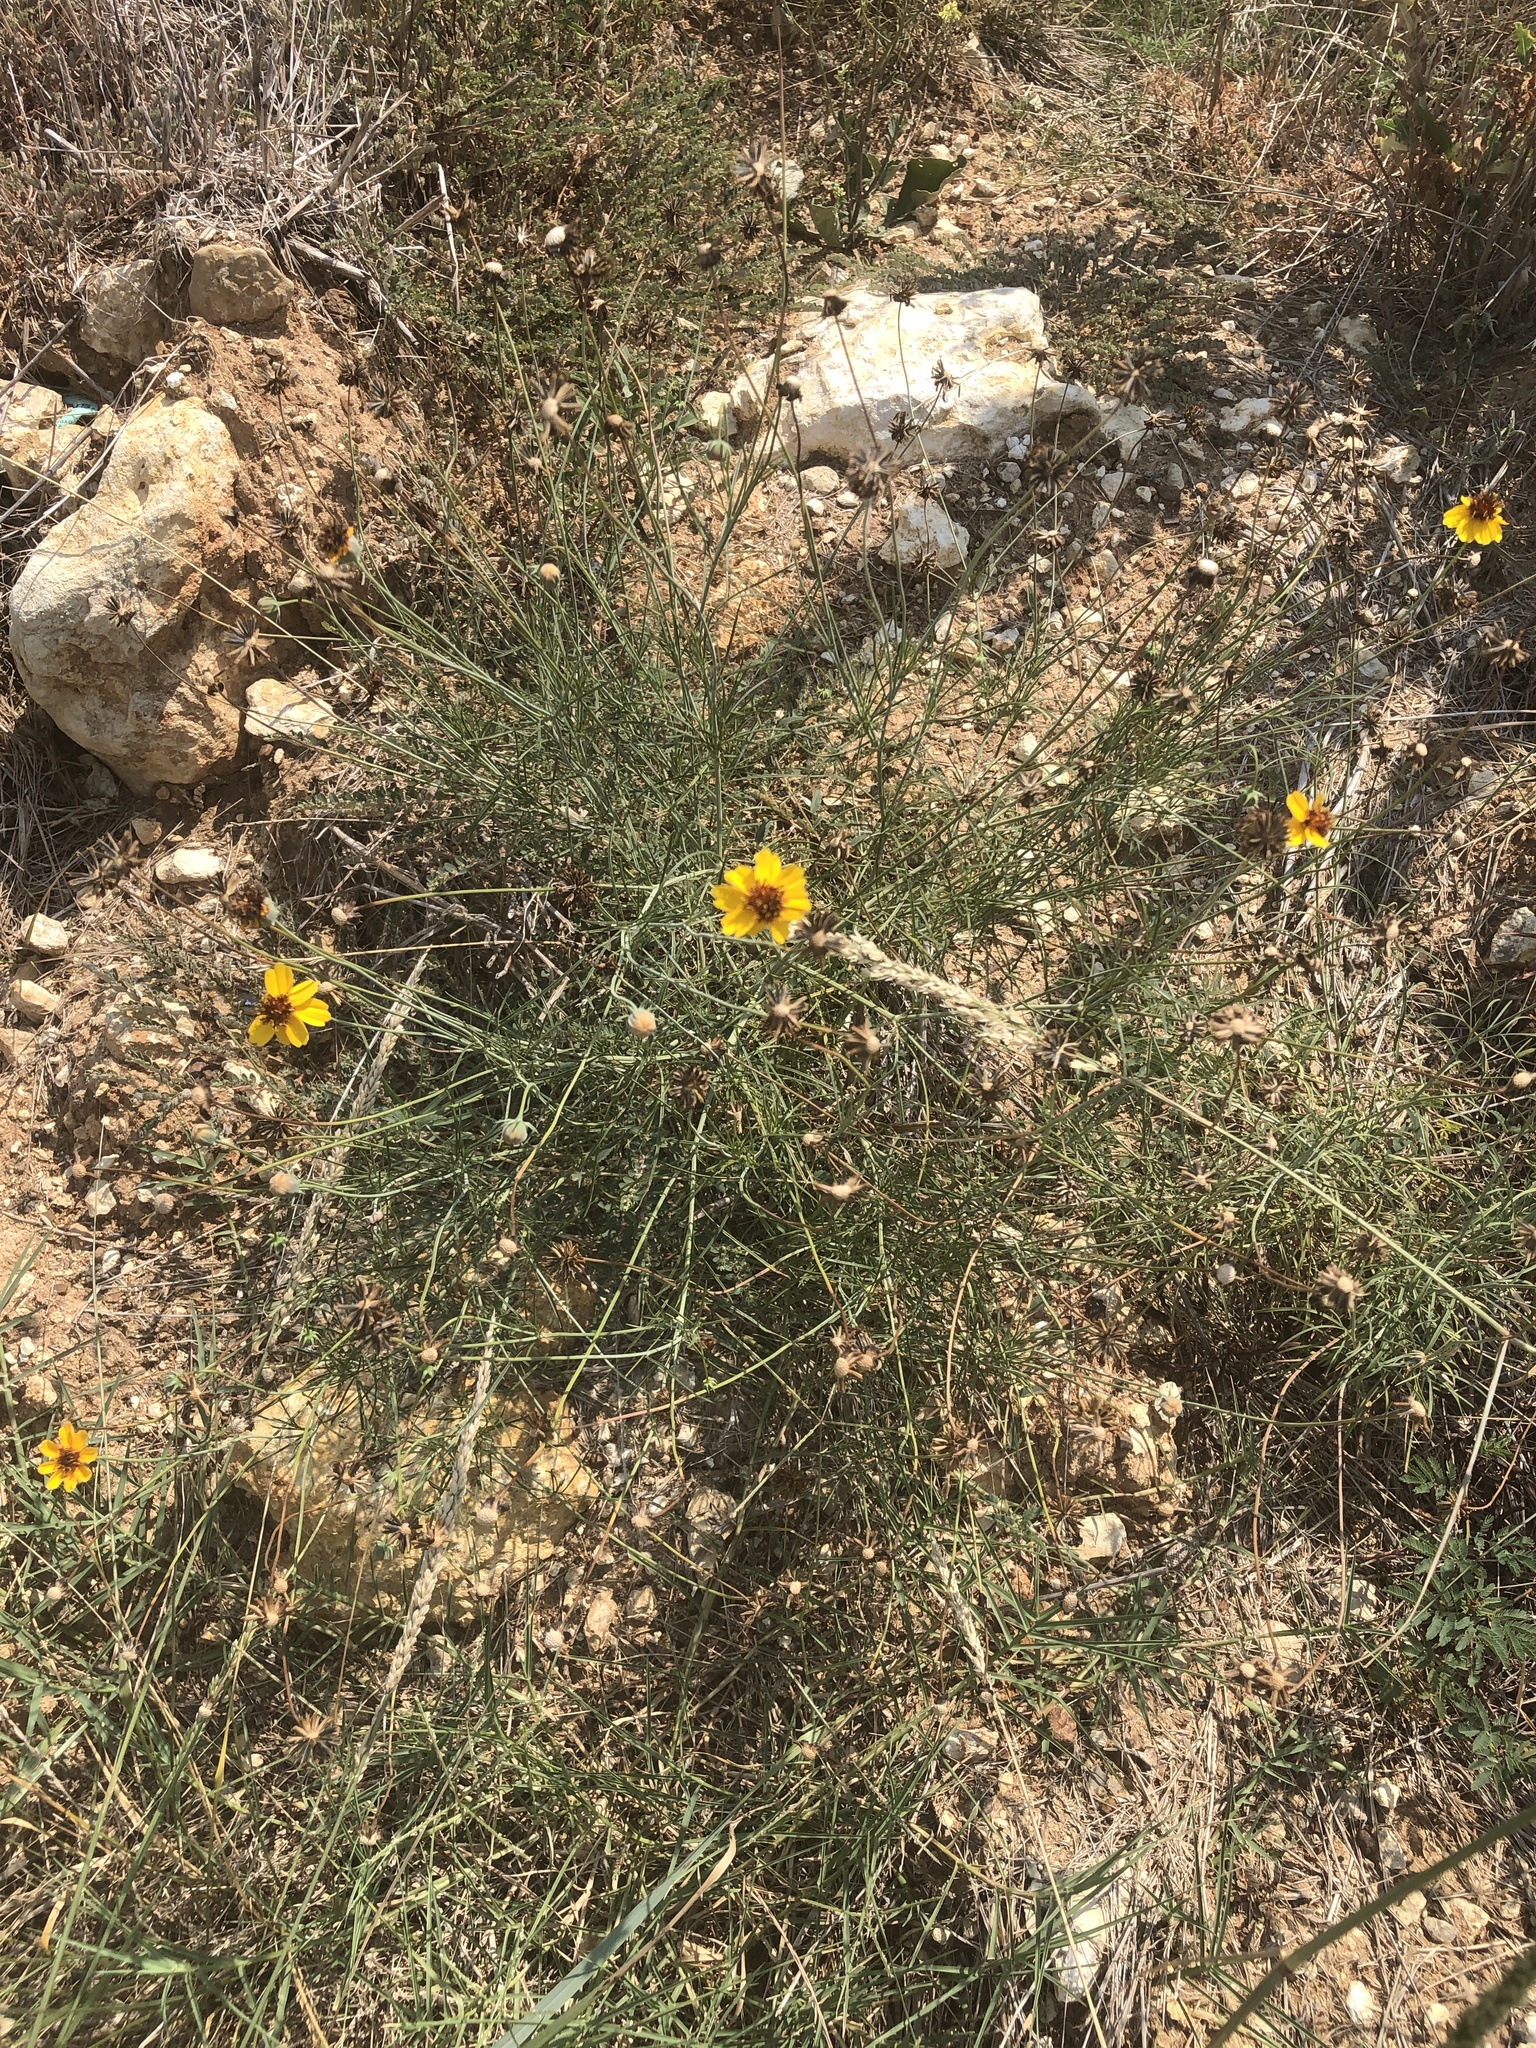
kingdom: Plantae
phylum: Tracheophyta
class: Magnoliopsida
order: Asterales
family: Asteraceae
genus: Thelesperma
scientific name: Thelesperma filifolium
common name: Stiff greenthread
